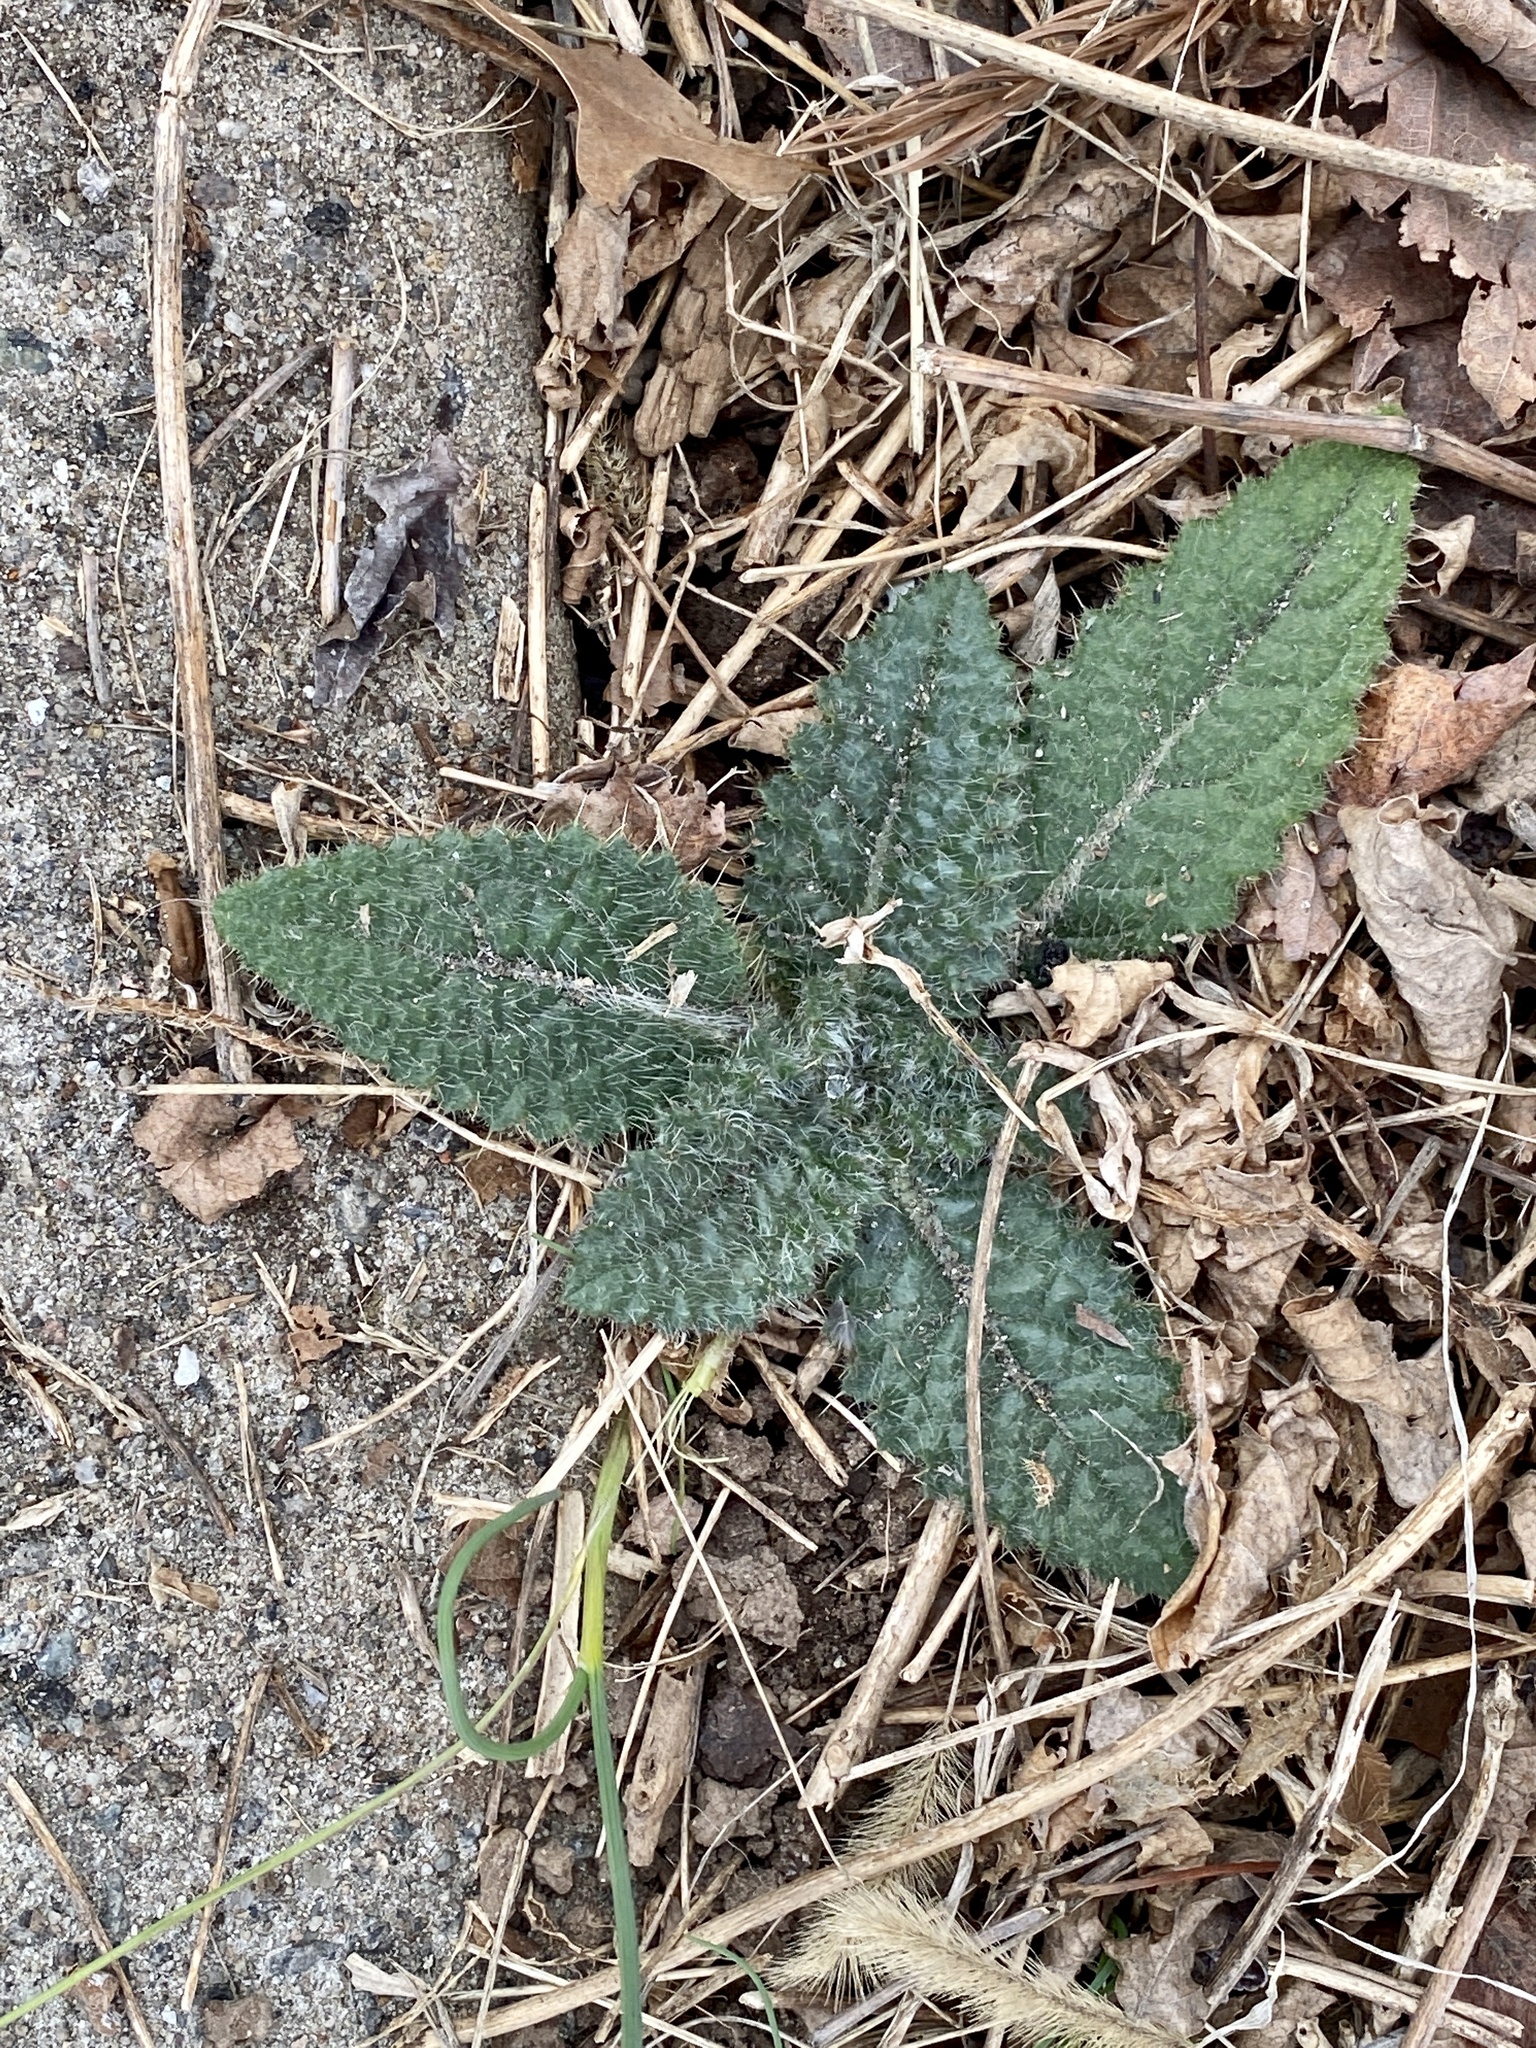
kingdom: Plantae
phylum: Tracheophyta
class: Magnoliopsida
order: Asterales
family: Asteraceae
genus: Cirsium
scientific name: Cirsium vulgare
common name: Bull thistle
